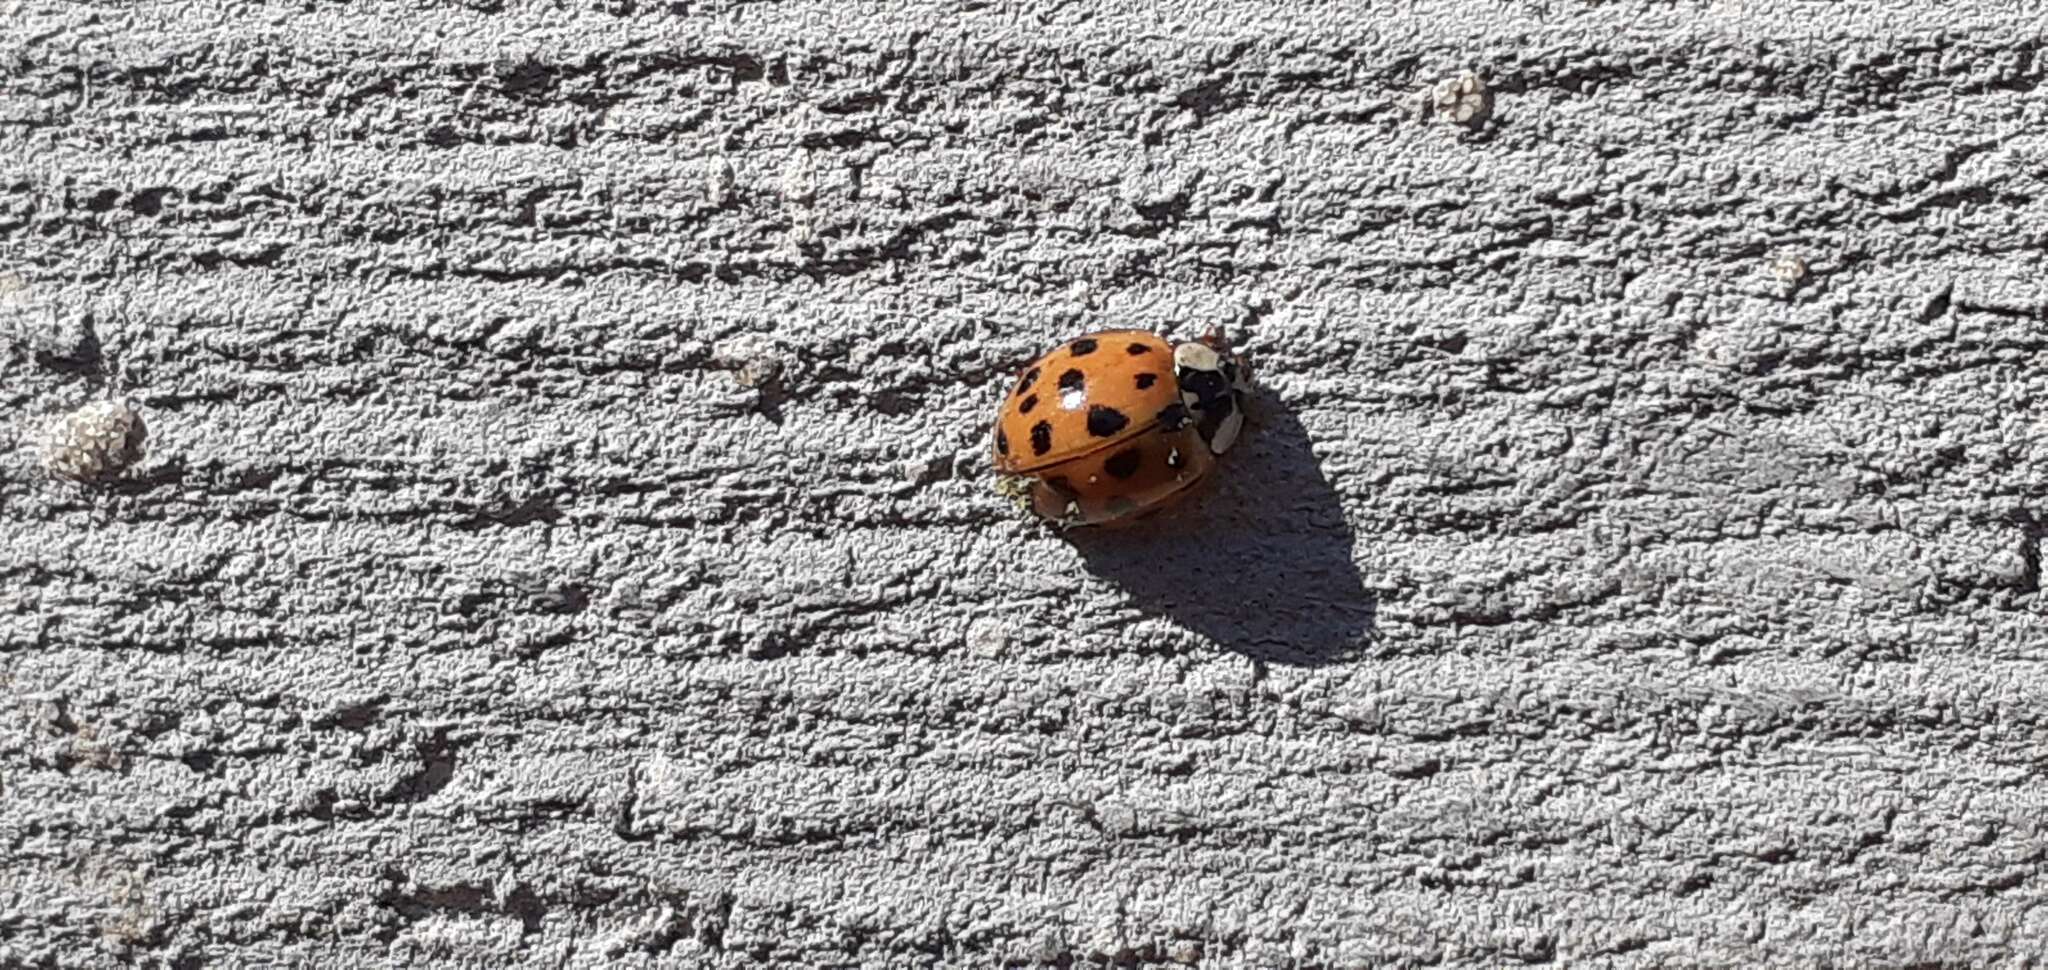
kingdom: Animalia
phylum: Arthropoda
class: Insecta
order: Coleoptera
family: Coccinellidae
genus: Harmonia
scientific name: Harmonia axyridis
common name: Harlequin ladybird
